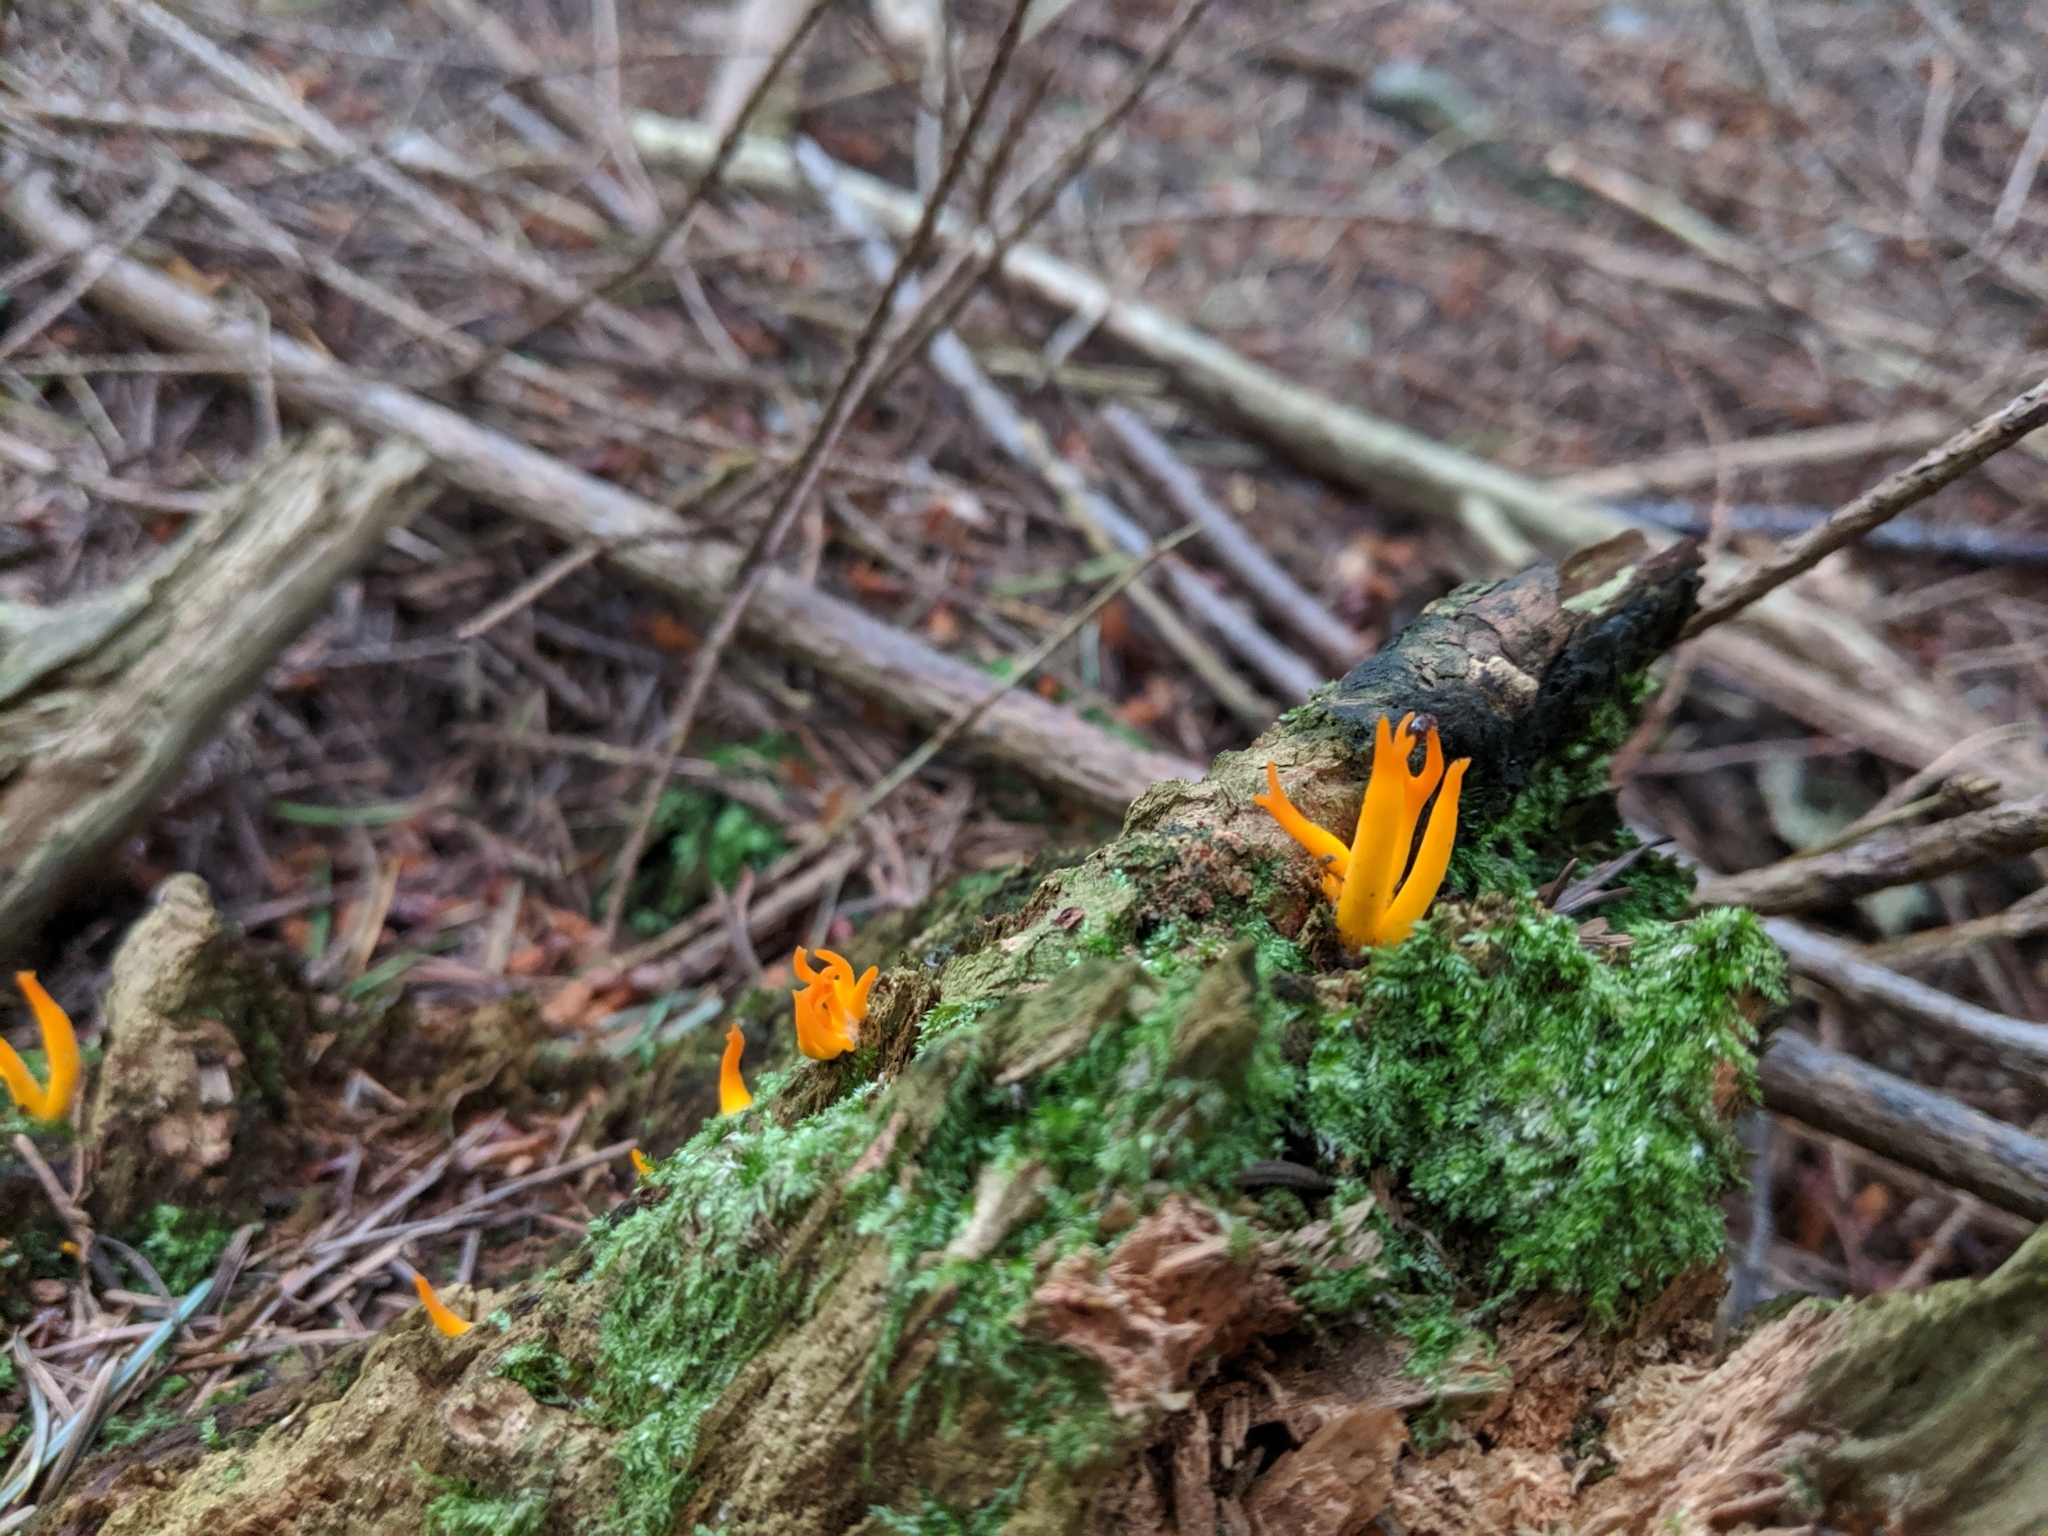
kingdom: Fungi
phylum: Basidiomycota
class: Dacrymycetes
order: Dacrymycetales
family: Dacrymycetaceae
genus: Calocera
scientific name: Calocera viscosa
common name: Yellow stagshorn
